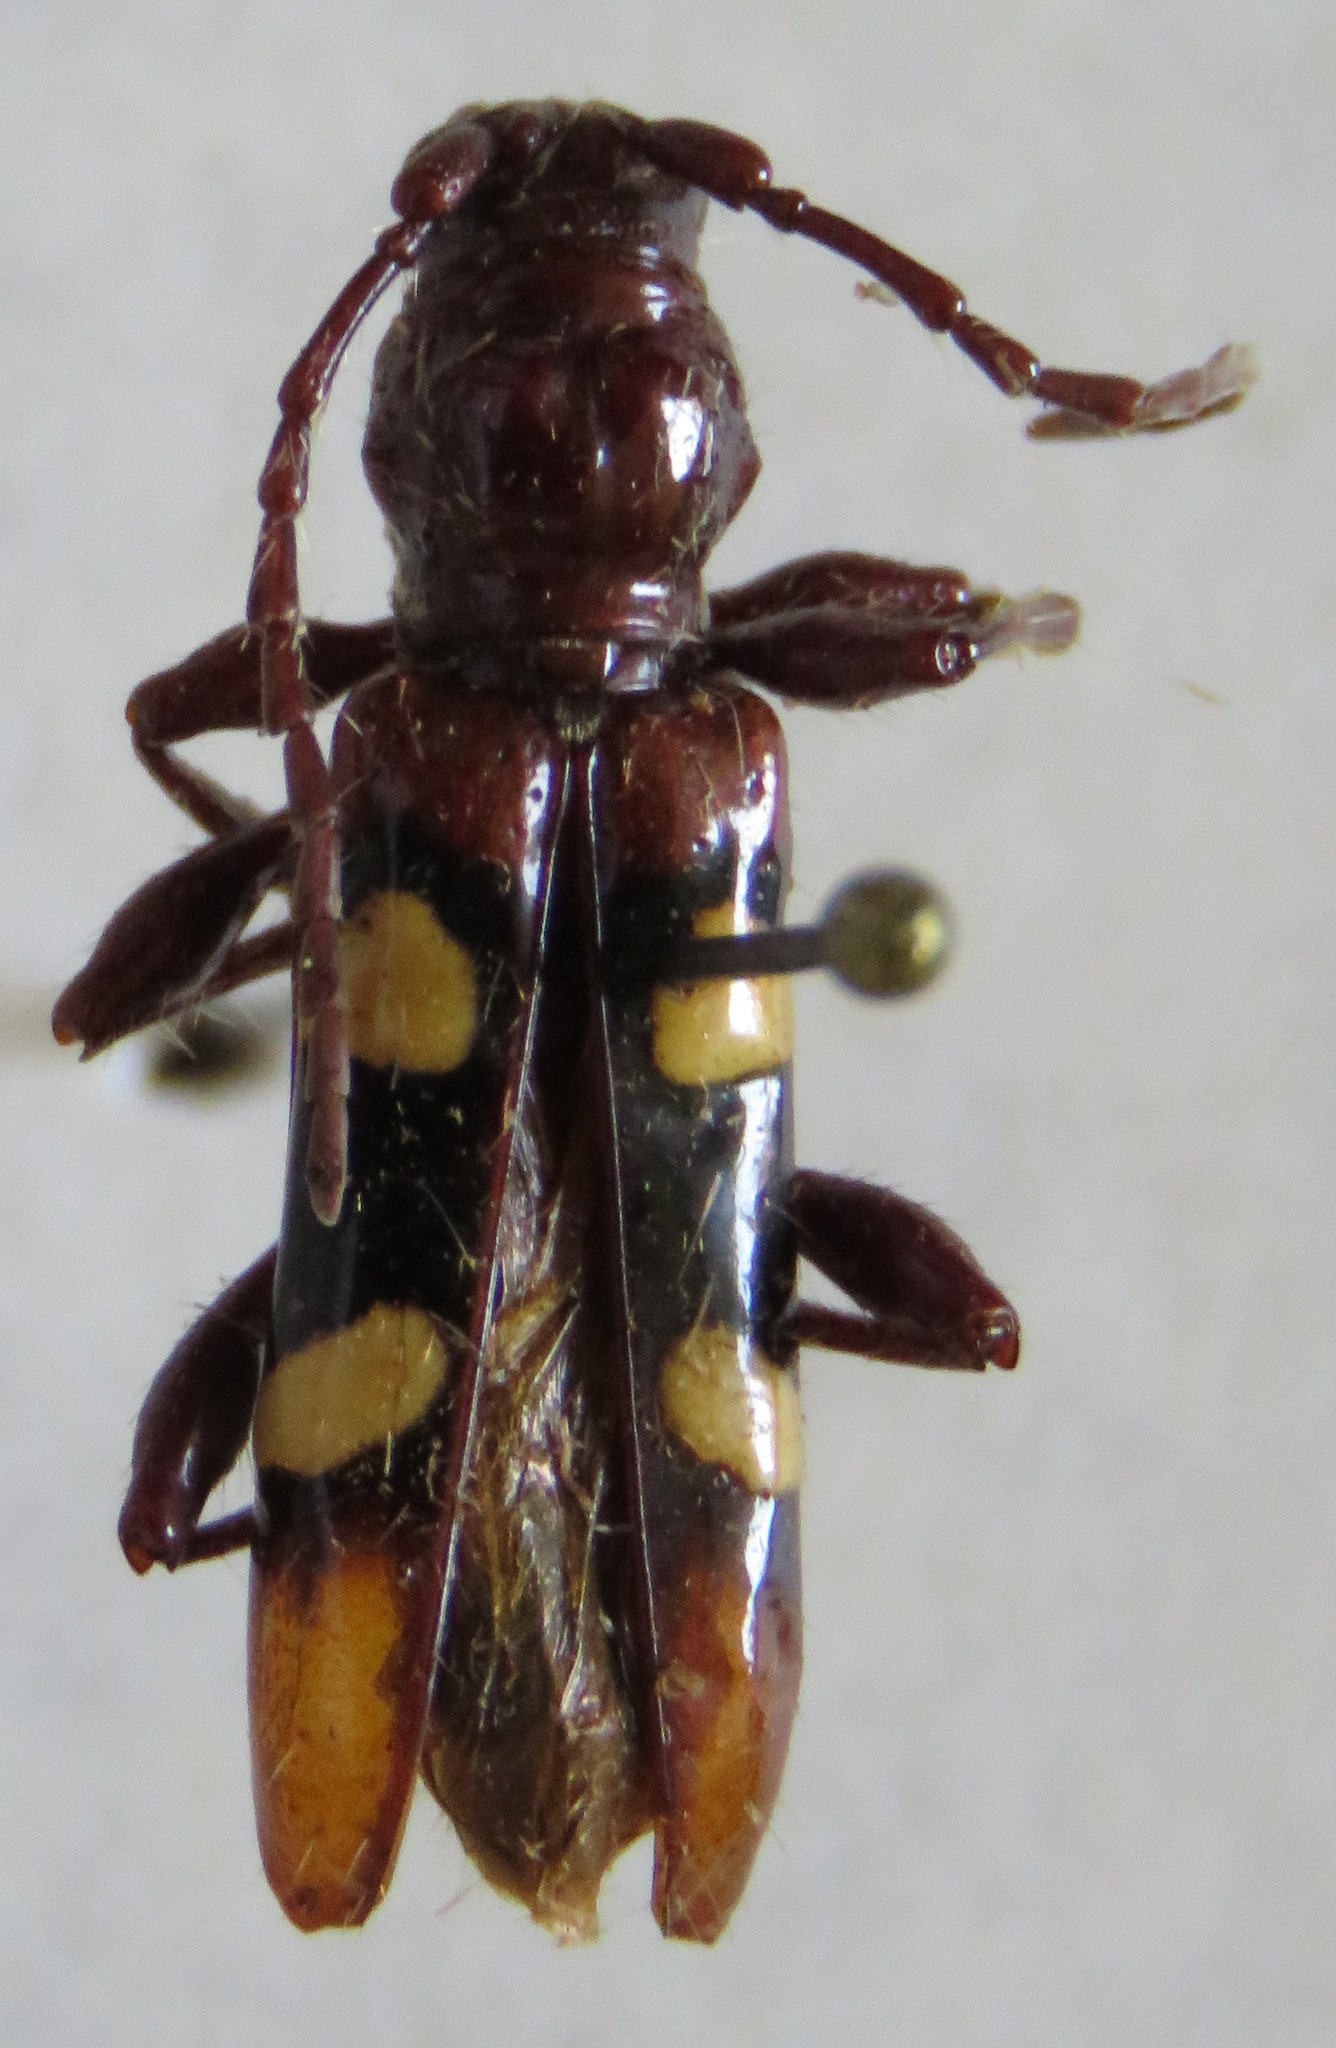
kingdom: Animalia
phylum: Arthropoda
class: Insecta
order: Coleoptera
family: Cerambycidae
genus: Stenygra
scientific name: Stenygra histrio
